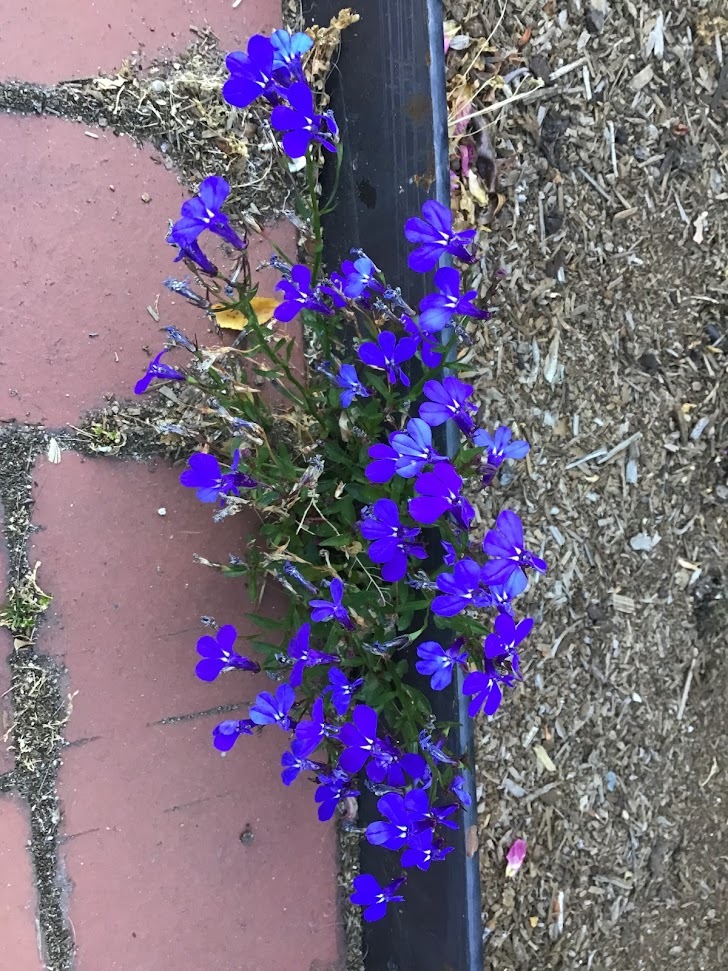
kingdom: Plantae
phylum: Tracheophyta
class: Magnoliopsida
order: Asterales
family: Campanulaceae
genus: Lobelia
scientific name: Lobelia erinus
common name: Edging lobelia
